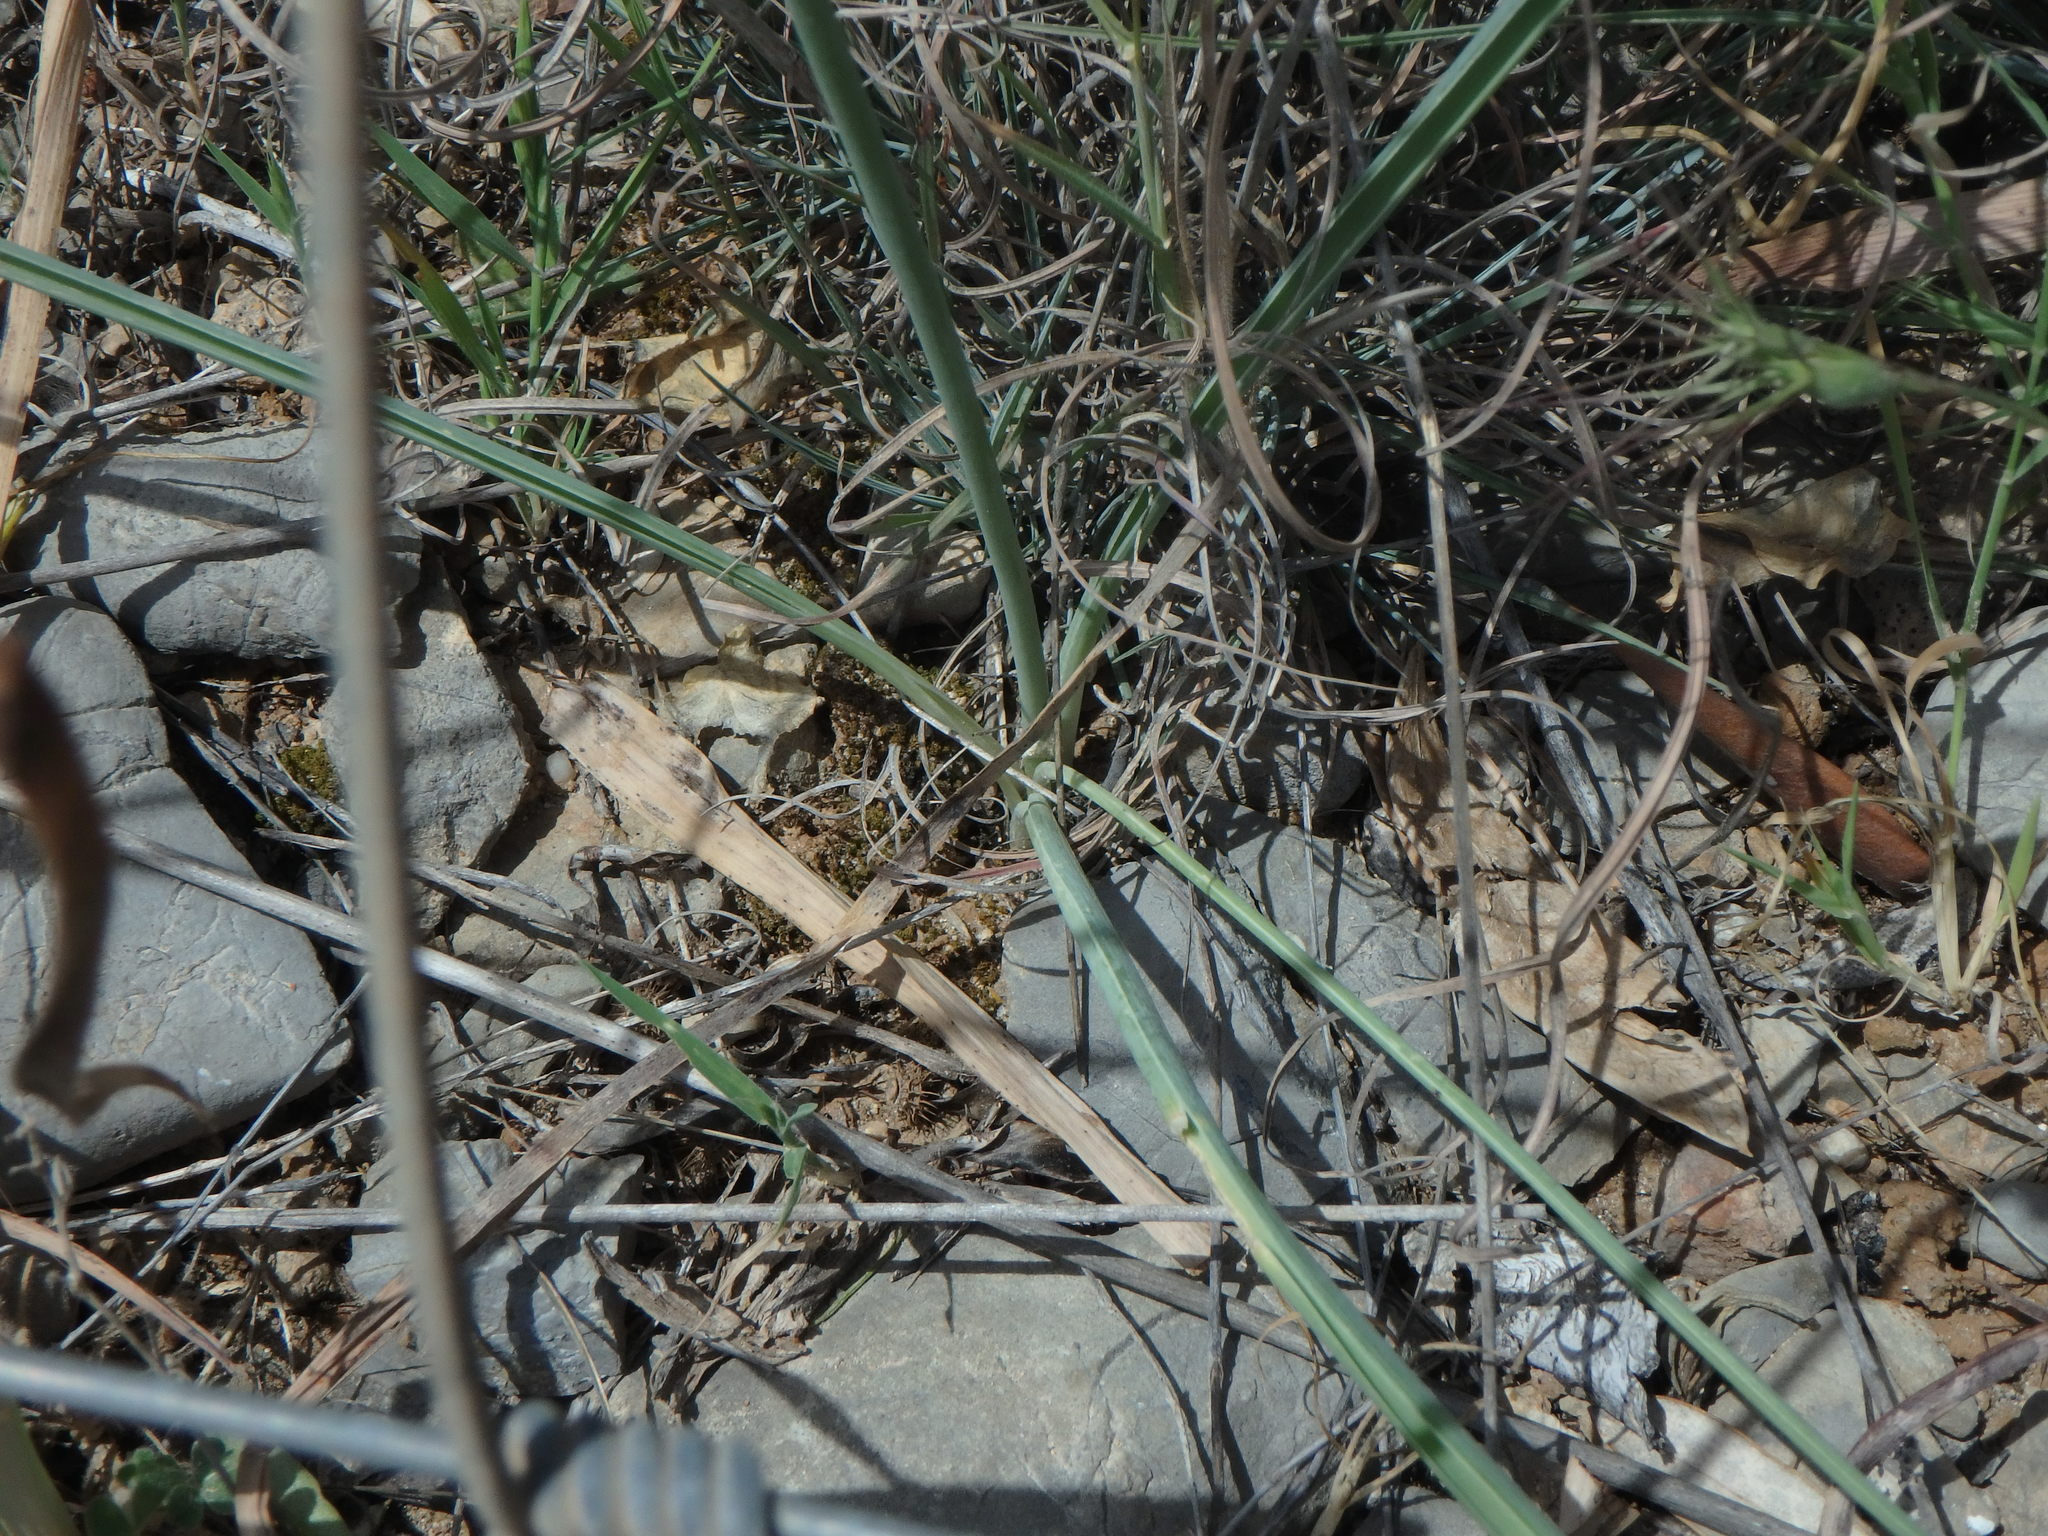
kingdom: Plantae
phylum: Tracheophyta
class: Liliopsida
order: Asparagales
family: Asparagaceae
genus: Ornithogalum
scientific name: Ornithogalum narbonense
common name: Bath-asparagus
